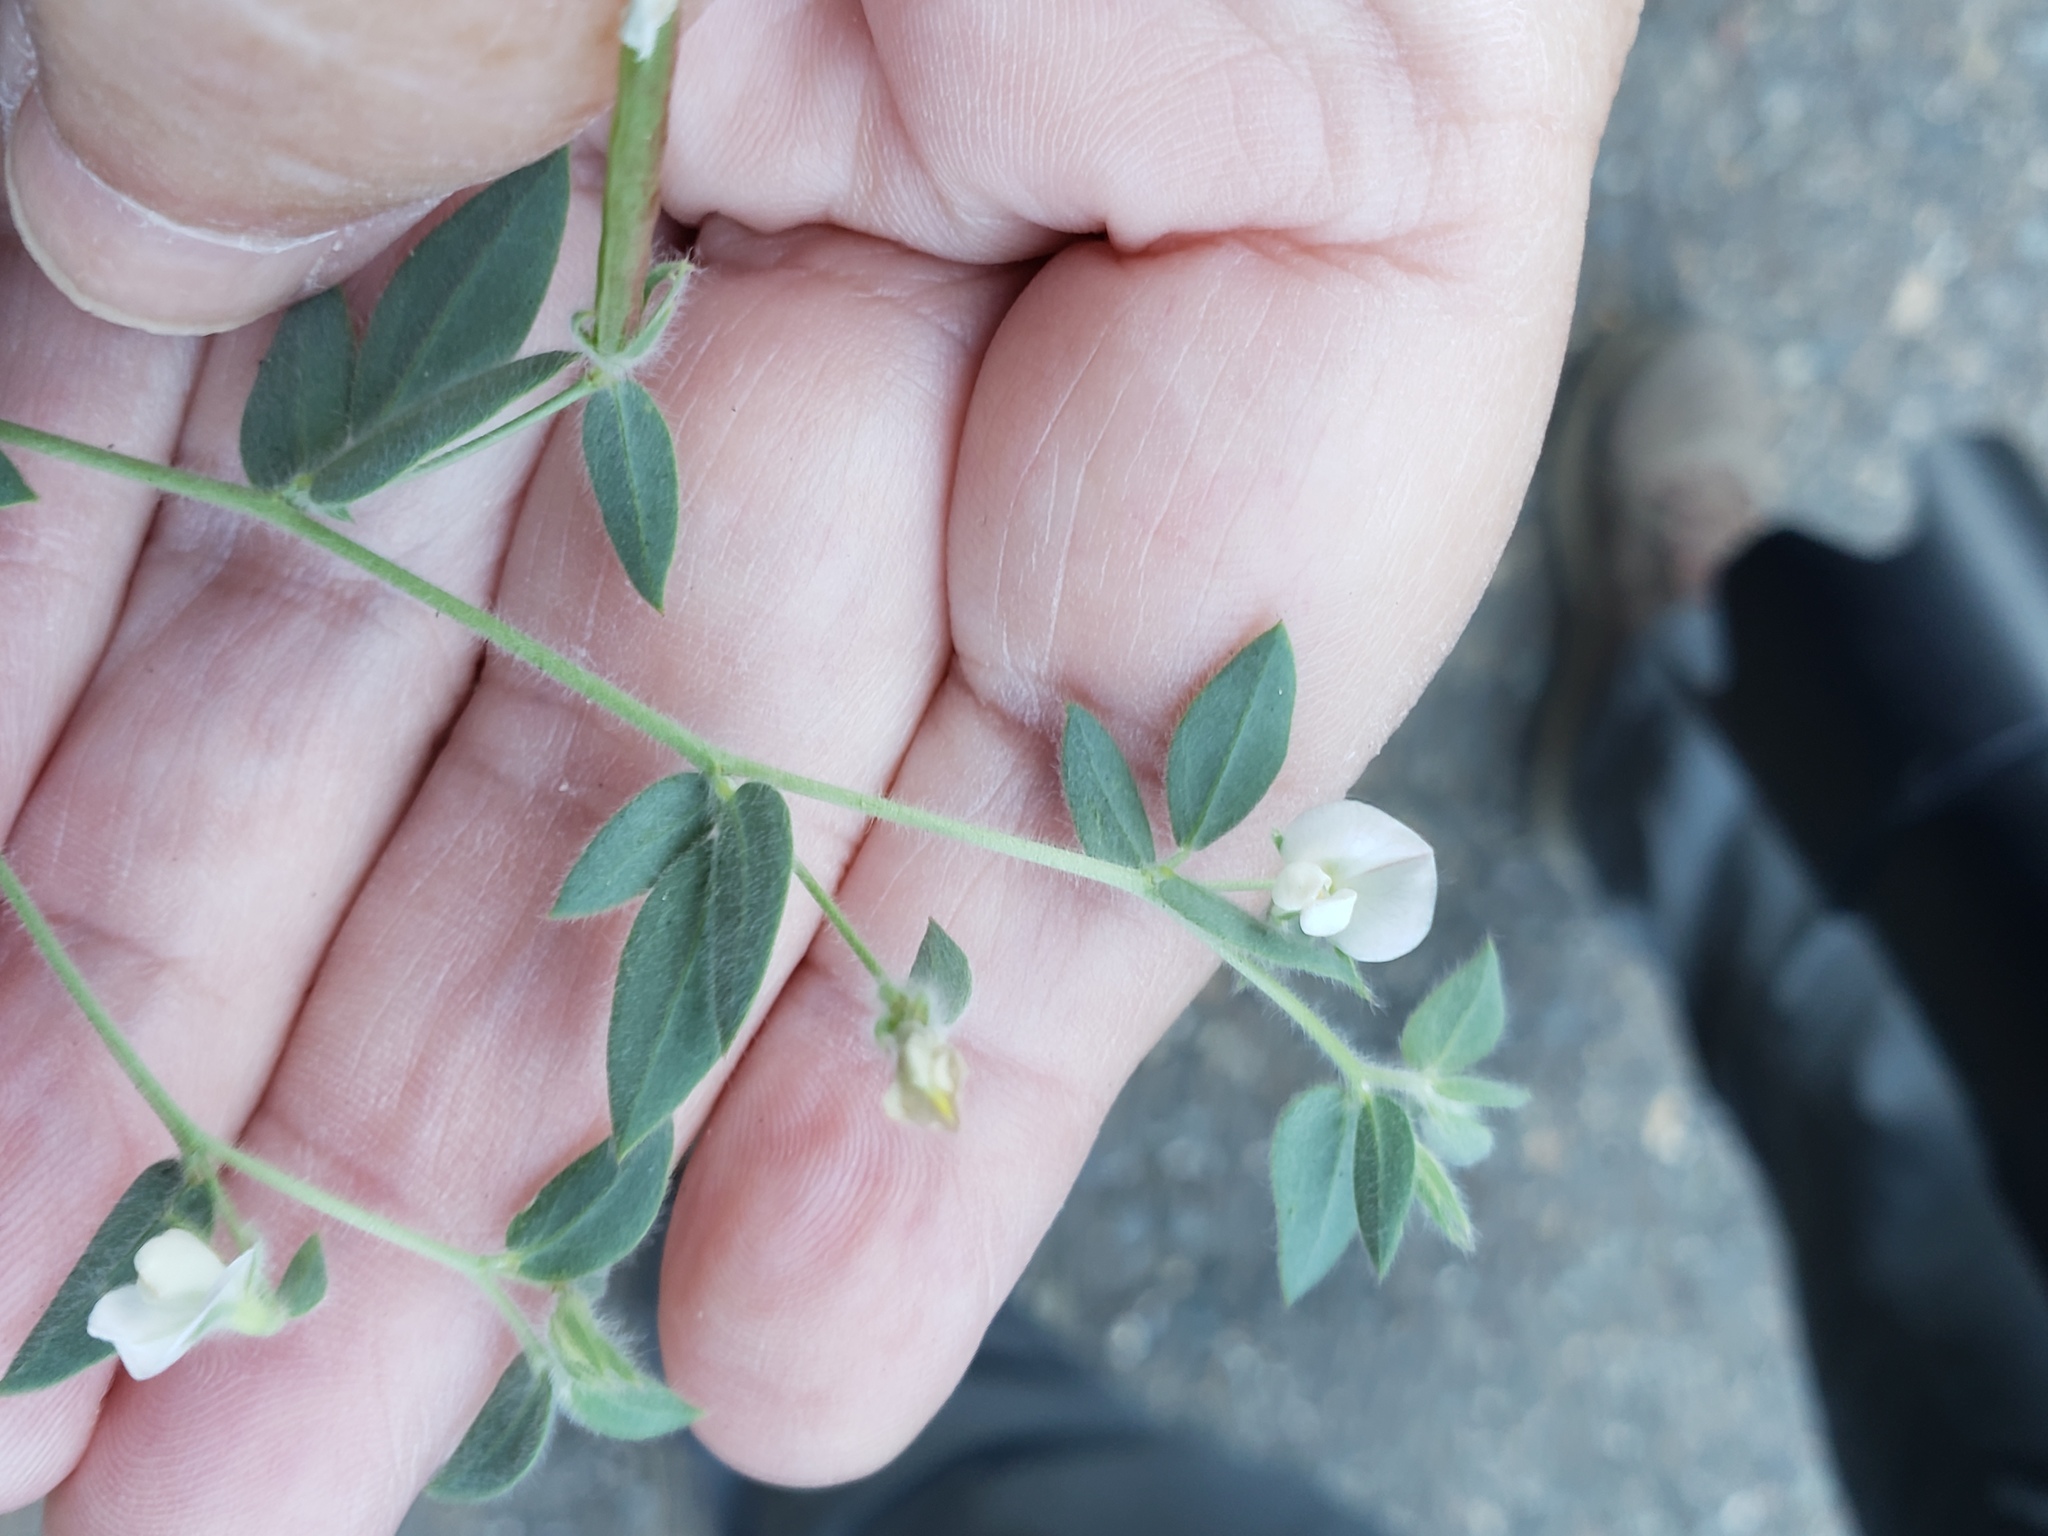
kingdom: Plantae
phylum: Tracheophyta
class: Magnoliopsida
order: Fabales
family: Fabaceae
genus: Acmispon
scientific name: Acmispon americanus
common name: American bird's-foot trefoil
